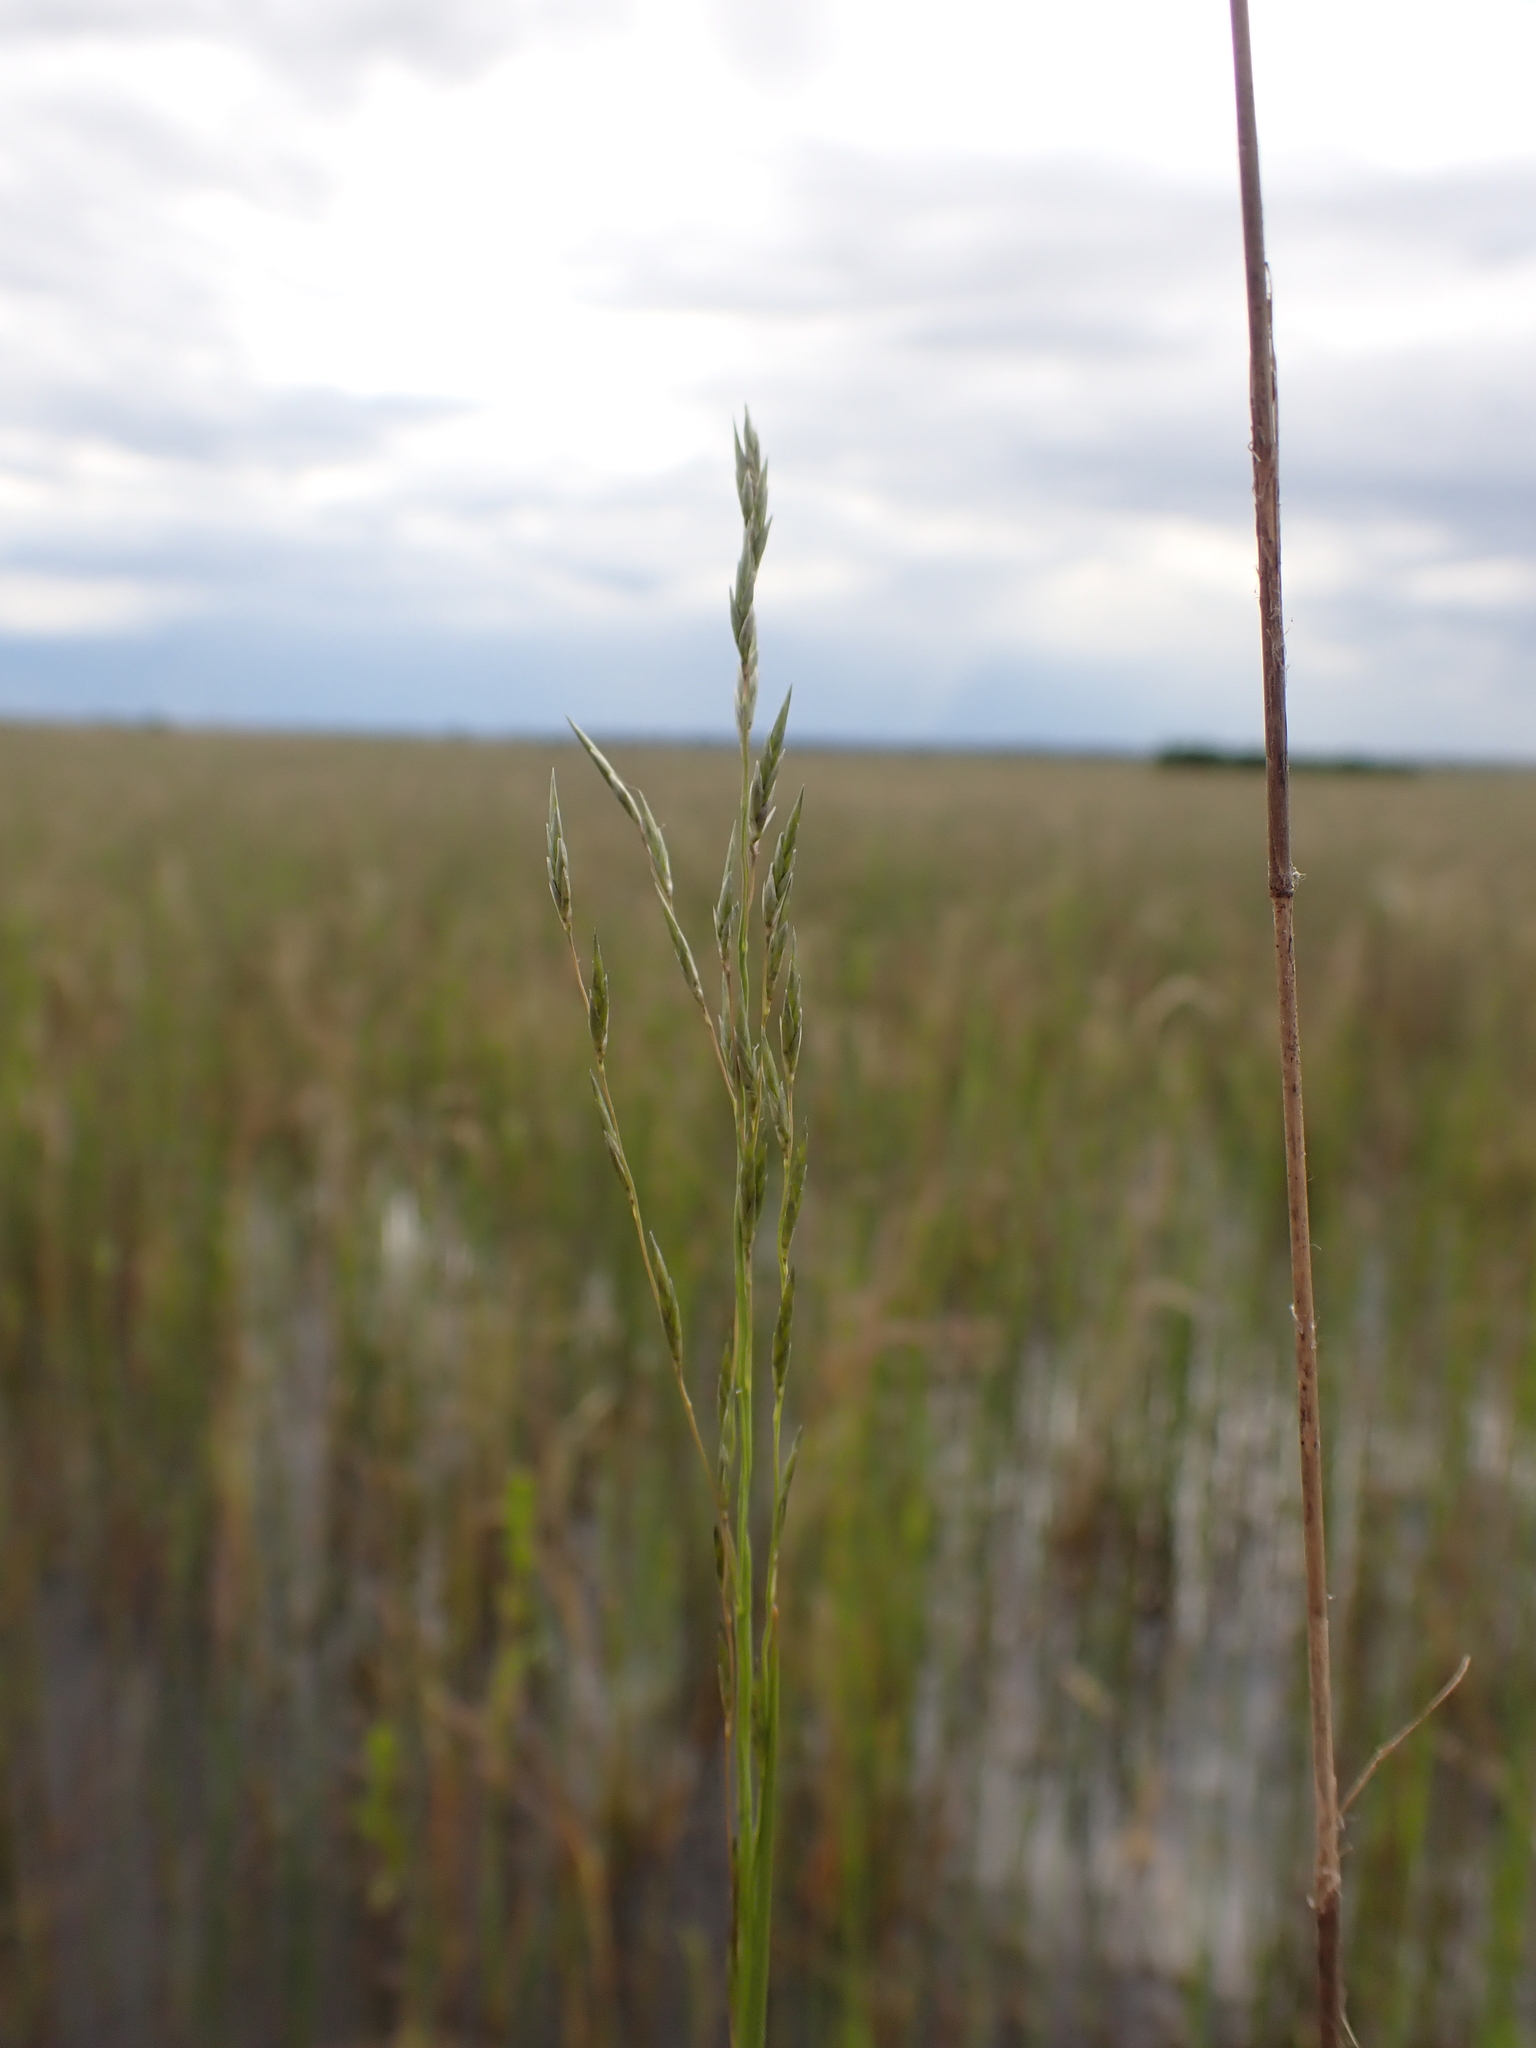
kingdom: Plantae
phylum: Tracheophyta
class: Liliopsida
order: Poales
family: Poaceae
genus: Eragrostis
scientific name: Eragrostis infecunda
